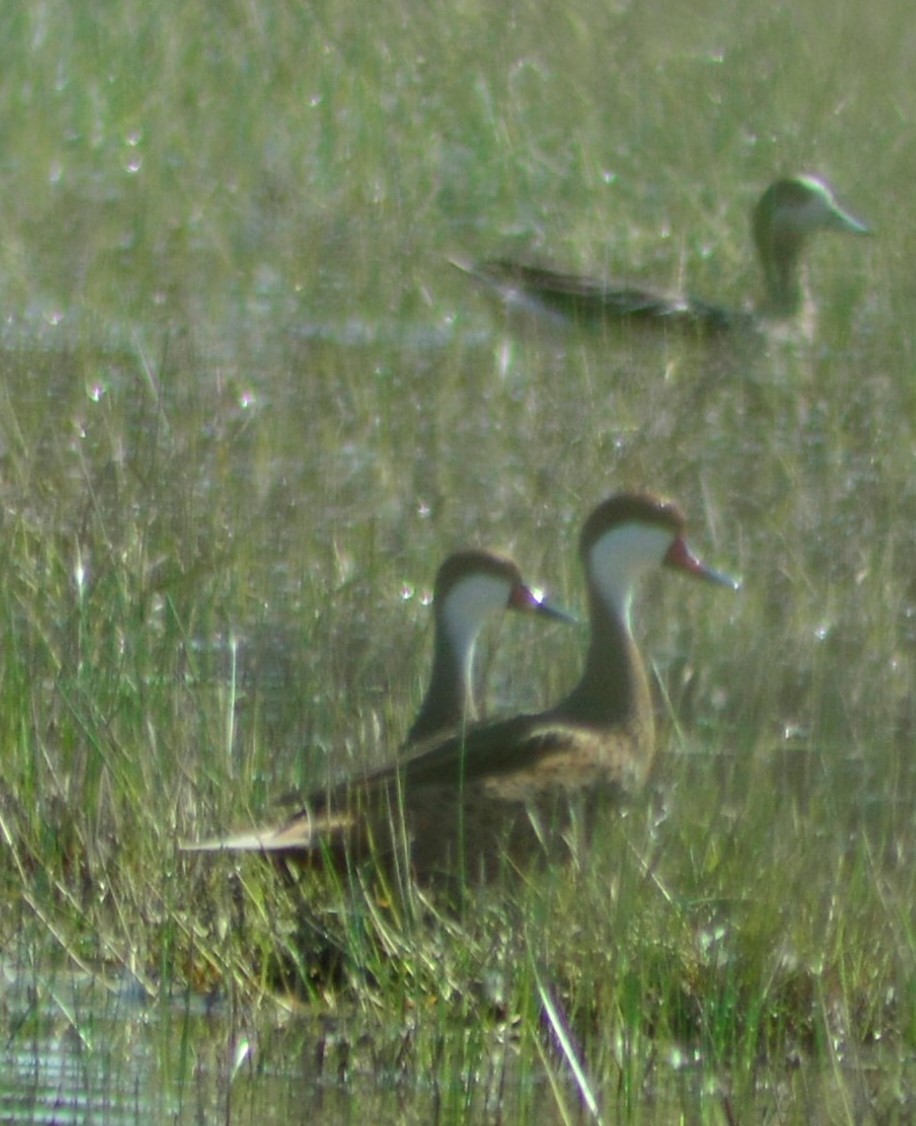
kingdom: Animalia
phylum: Chordata
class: Aves
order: Anseriformes
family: Anatidae
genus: Anas
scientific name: Anas bahamensis
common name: White-cheeked pintail
